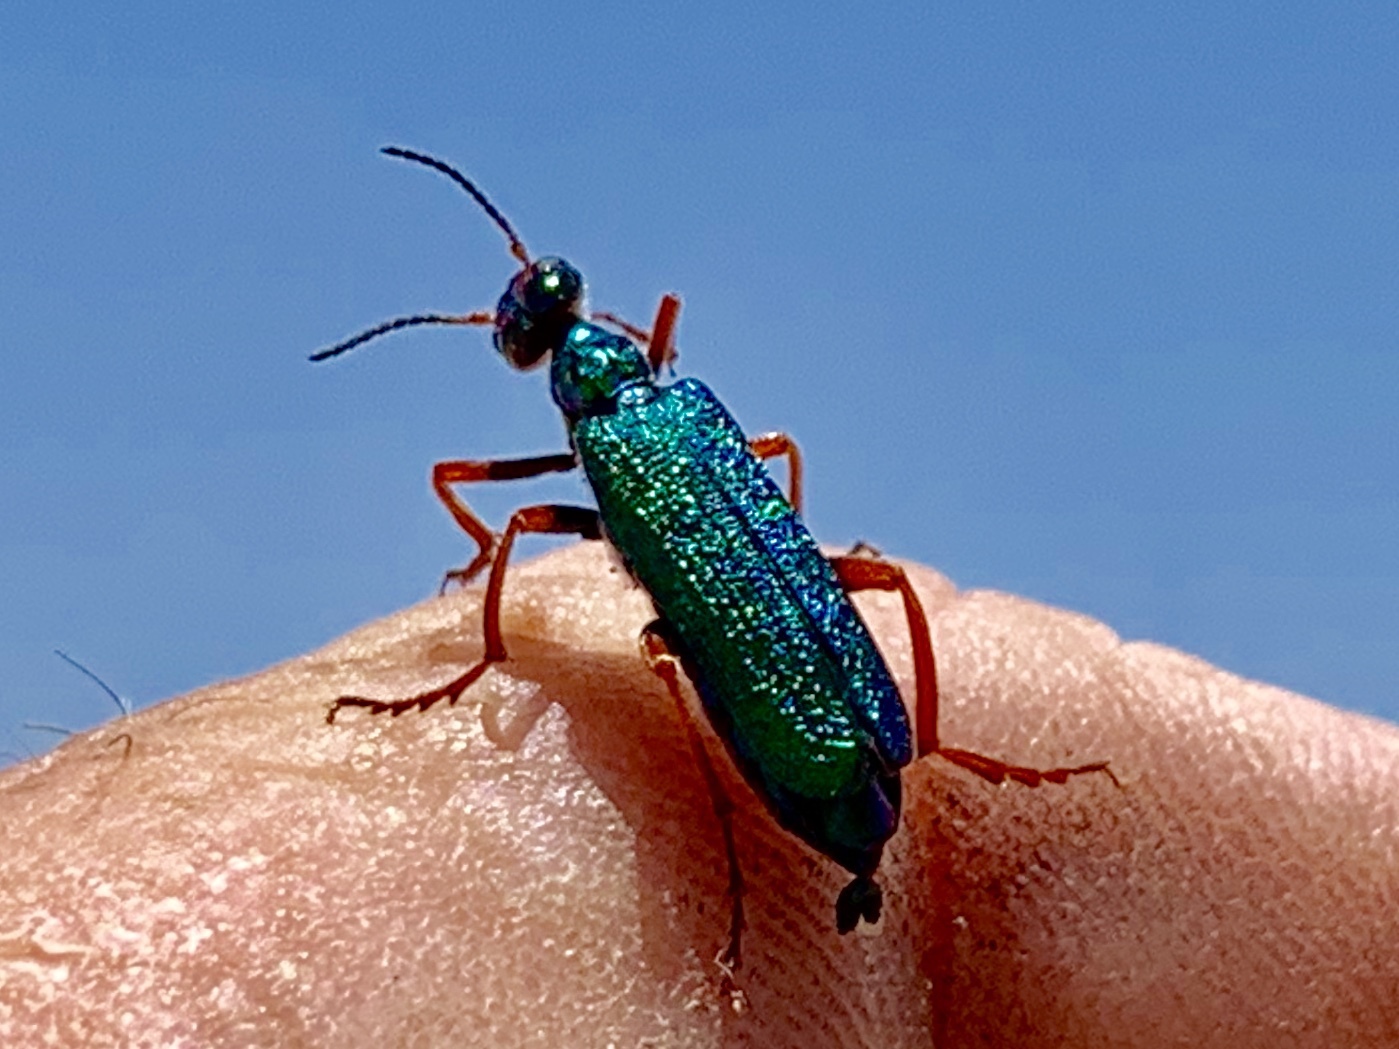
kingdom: Animalia
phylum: Arthropoda
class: Insecta
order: Coleoptera
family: Meloidae
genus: Eupompha
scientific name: Eupompha fissiceps
